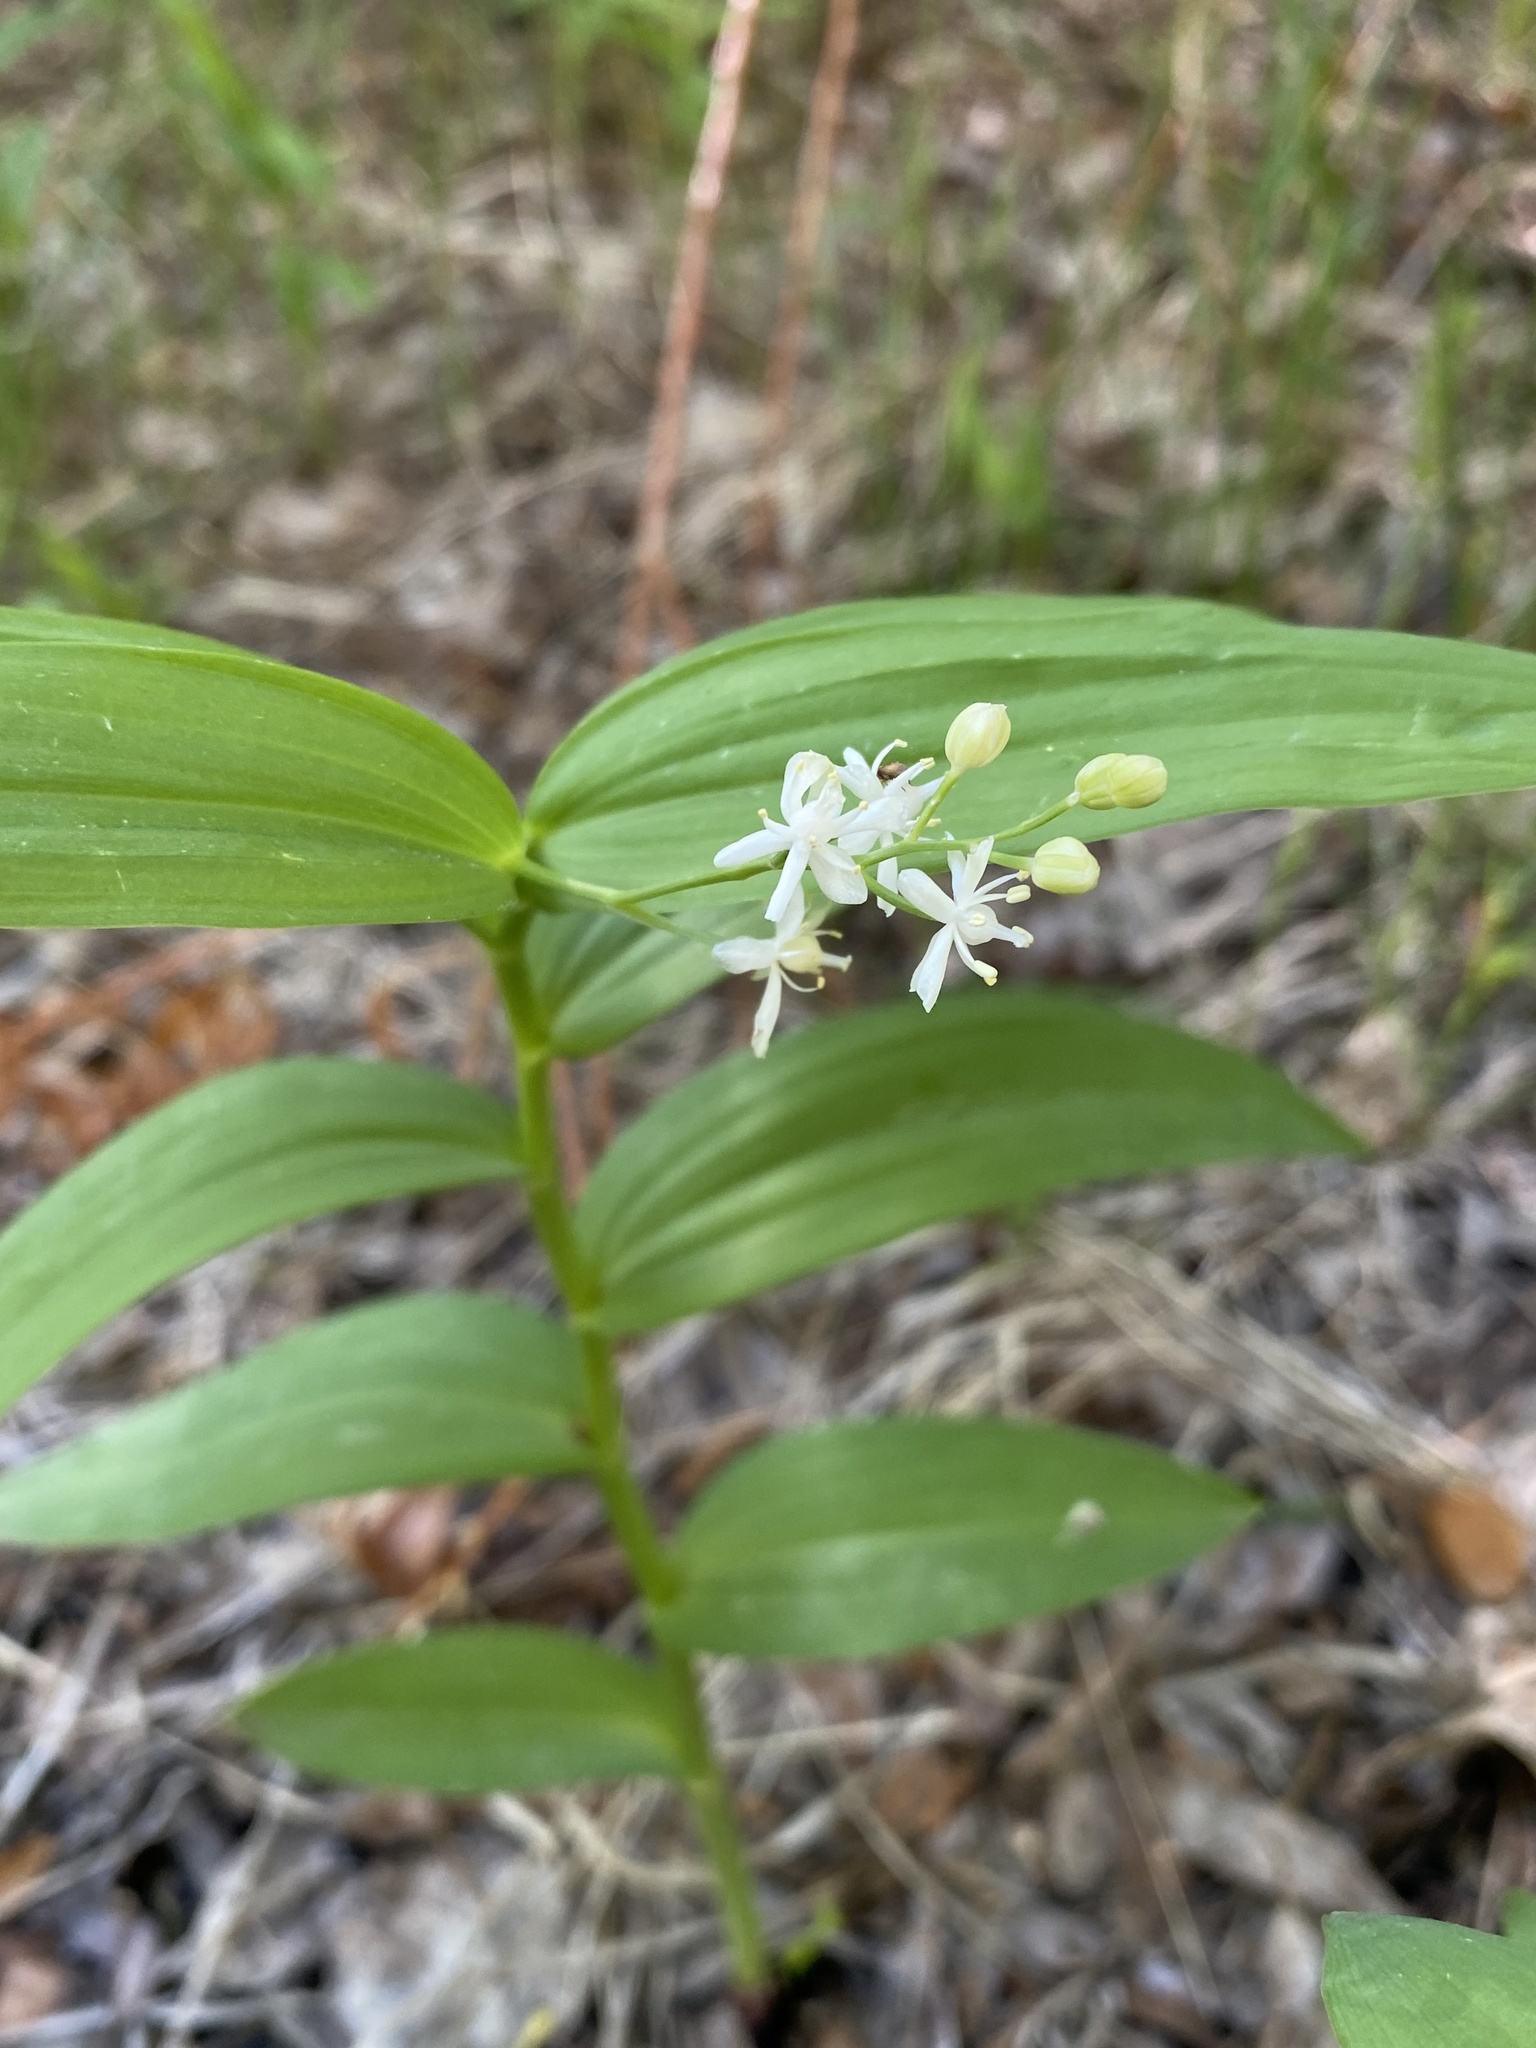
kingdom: Plantae
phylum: Tracheophyta
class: Liliopsida
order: Asparagales
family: Asparagaceae
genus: Maianthemum
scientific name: Maianthemum stellatum
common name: Little false solomon's seal
